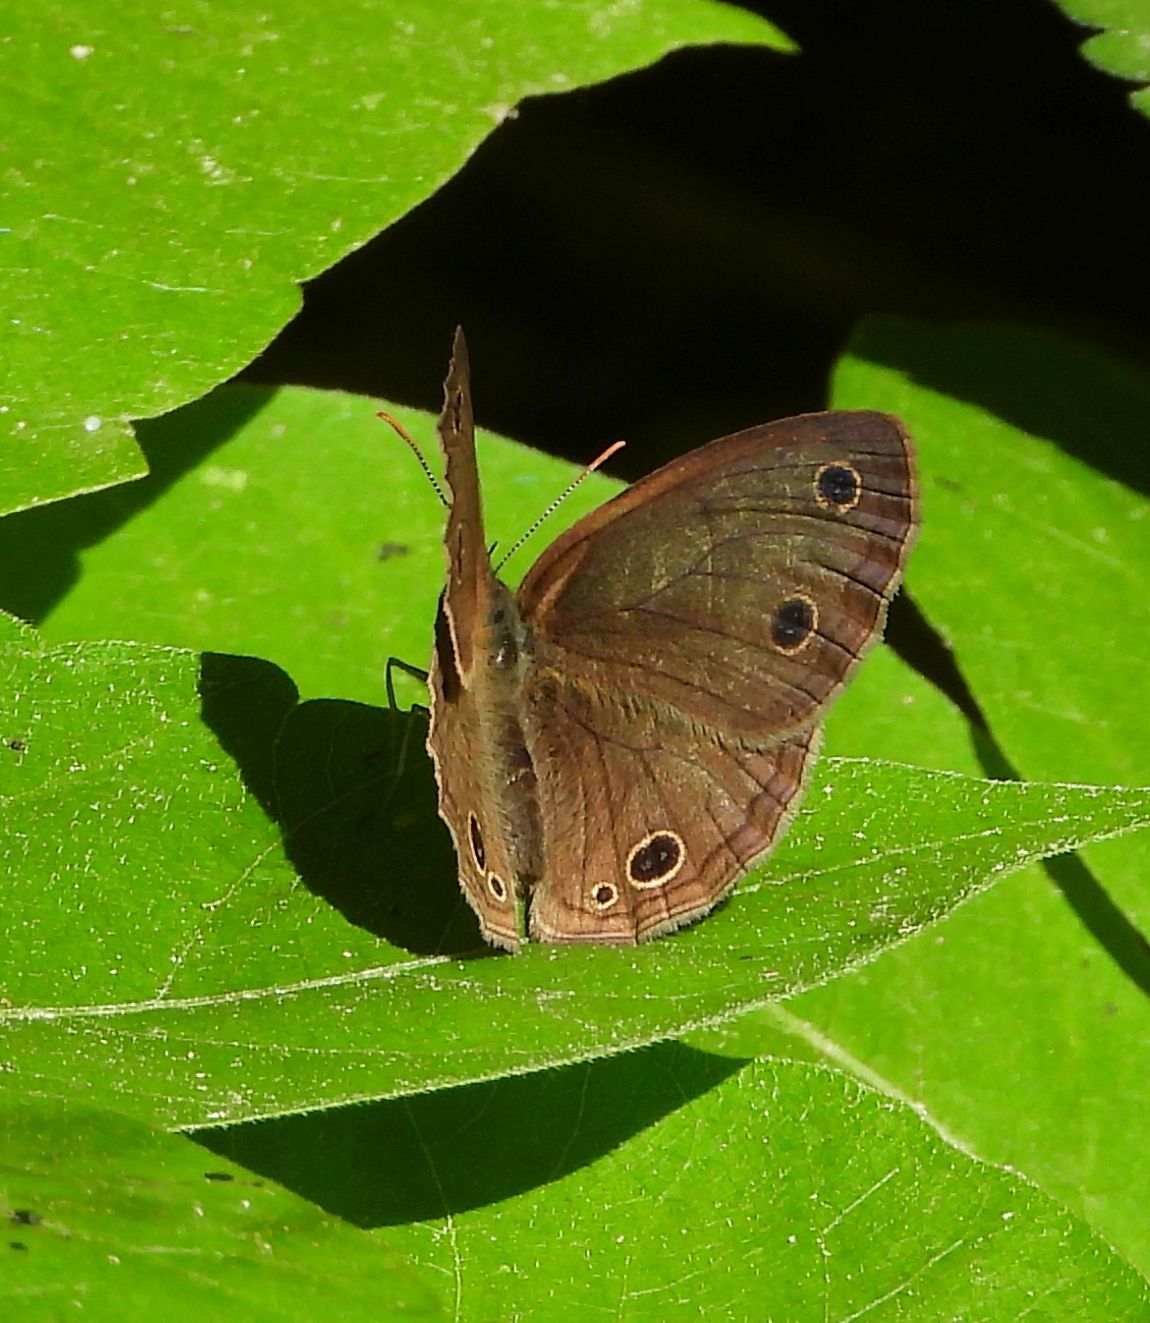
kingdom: Animalia
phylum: Arthropoda
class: Insecta
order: Lepidoptera
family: Nymphalidae
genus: Euptychia
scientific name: Euptychia cymela
